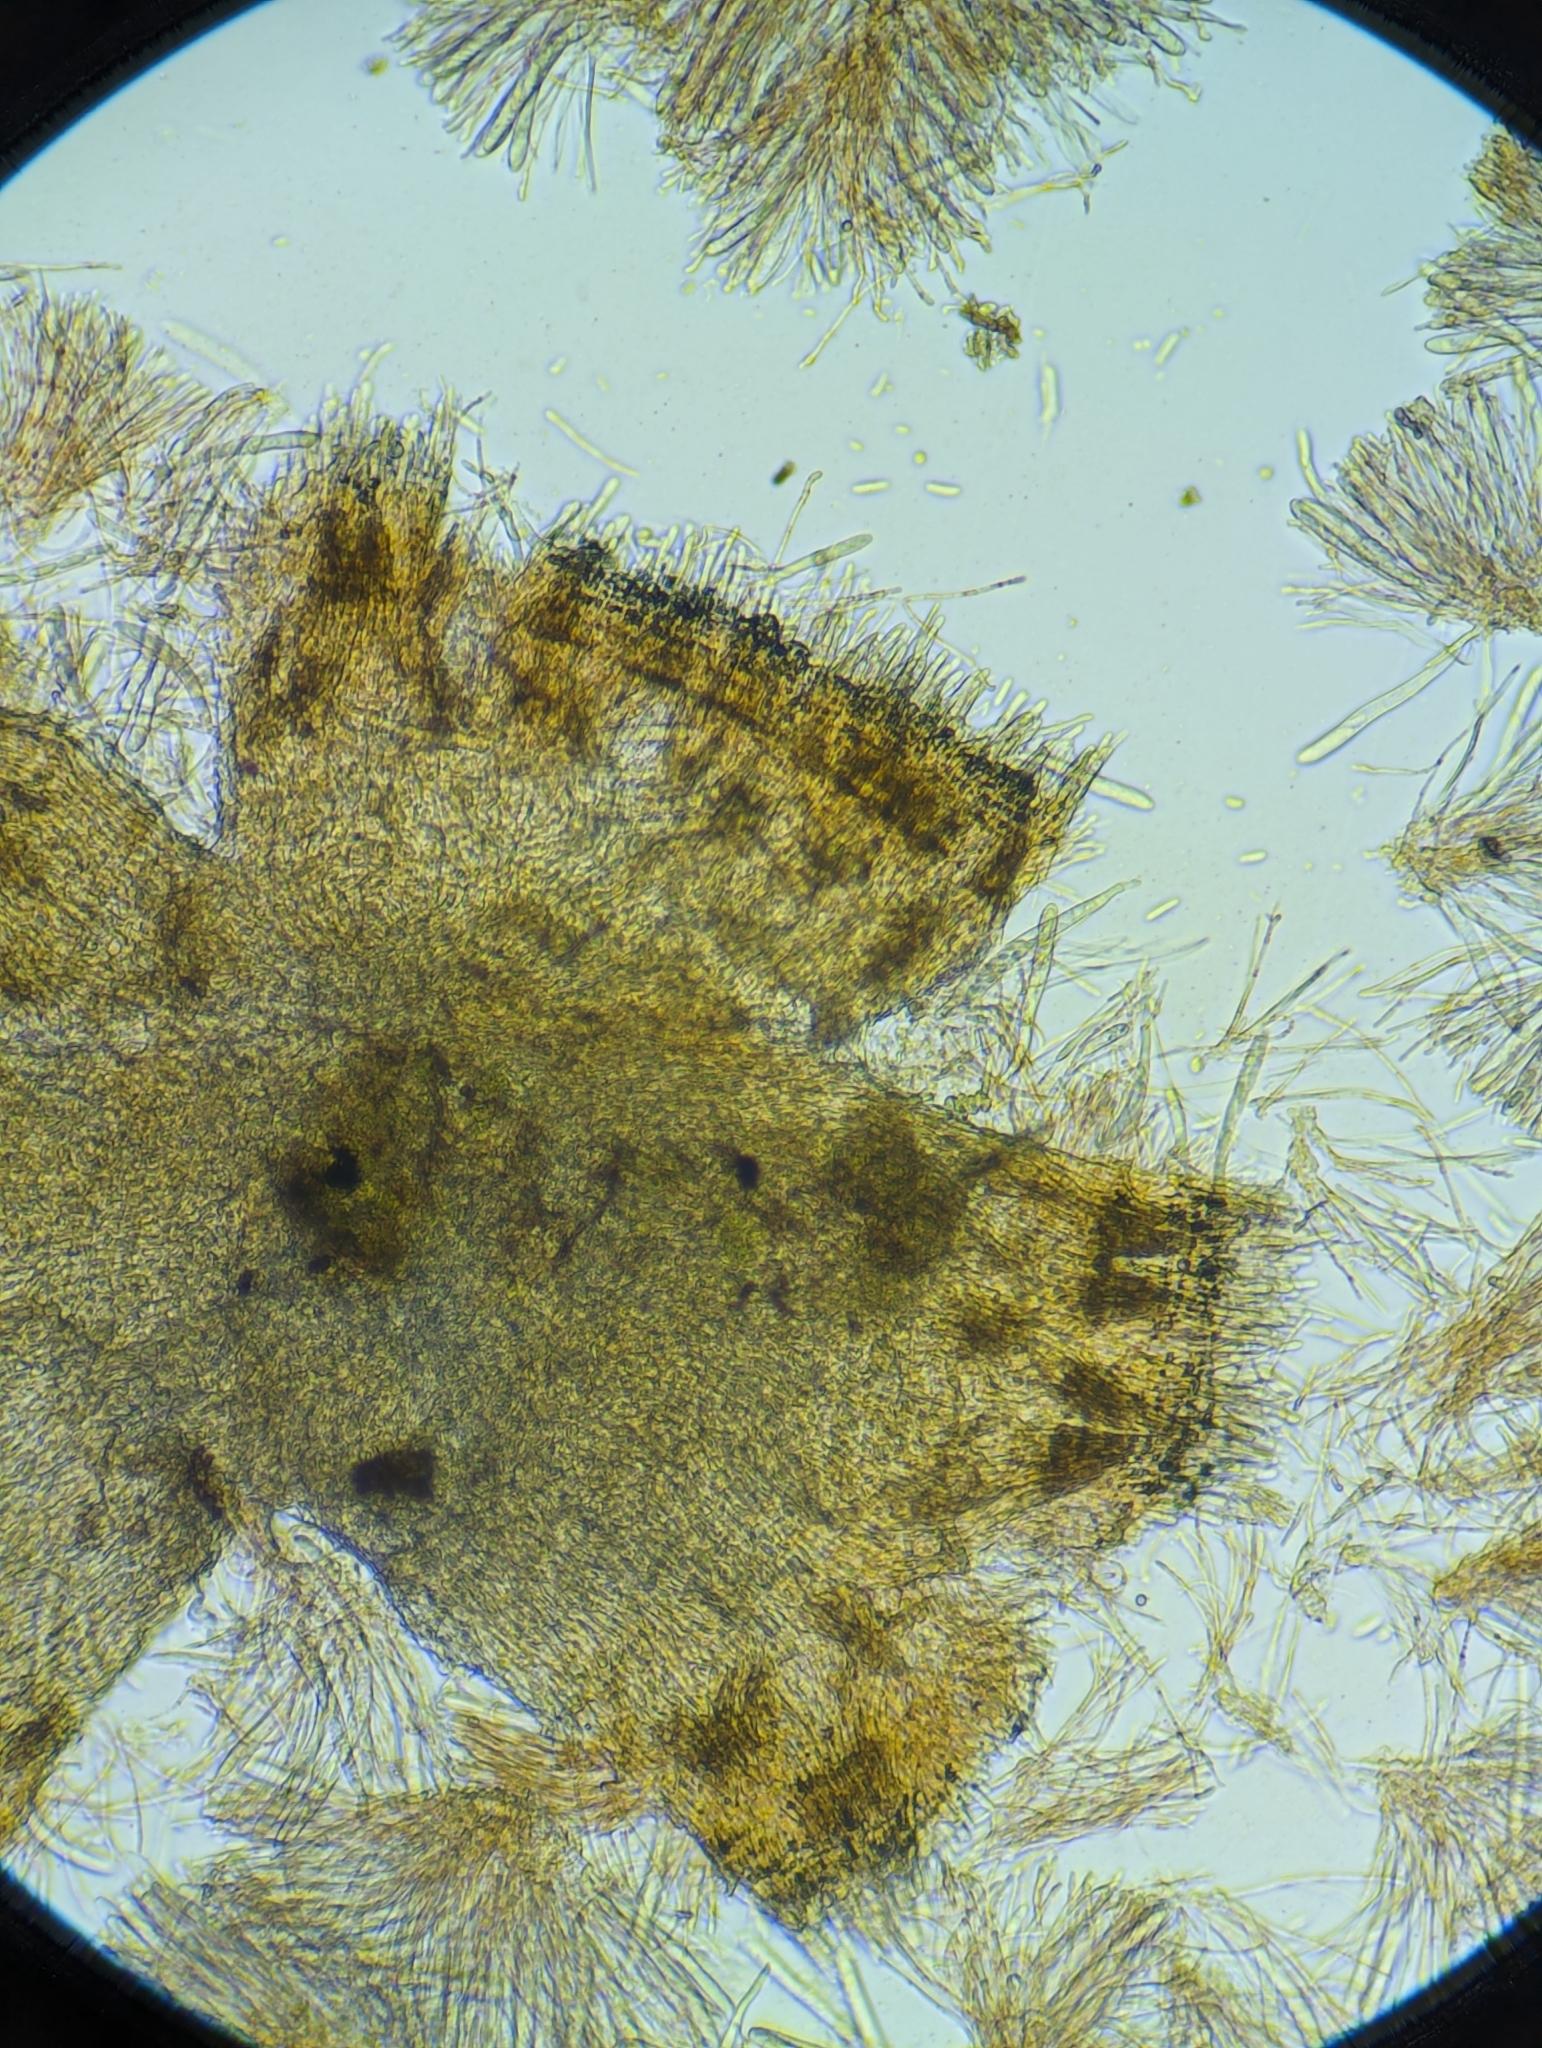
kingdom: Fungi
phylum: Ascomycota
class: Leotiomycetes
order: Helotiales
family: Arachnopezizaceae
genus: Arachnopeziza
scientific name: Arachnopeziza trabinelloides
